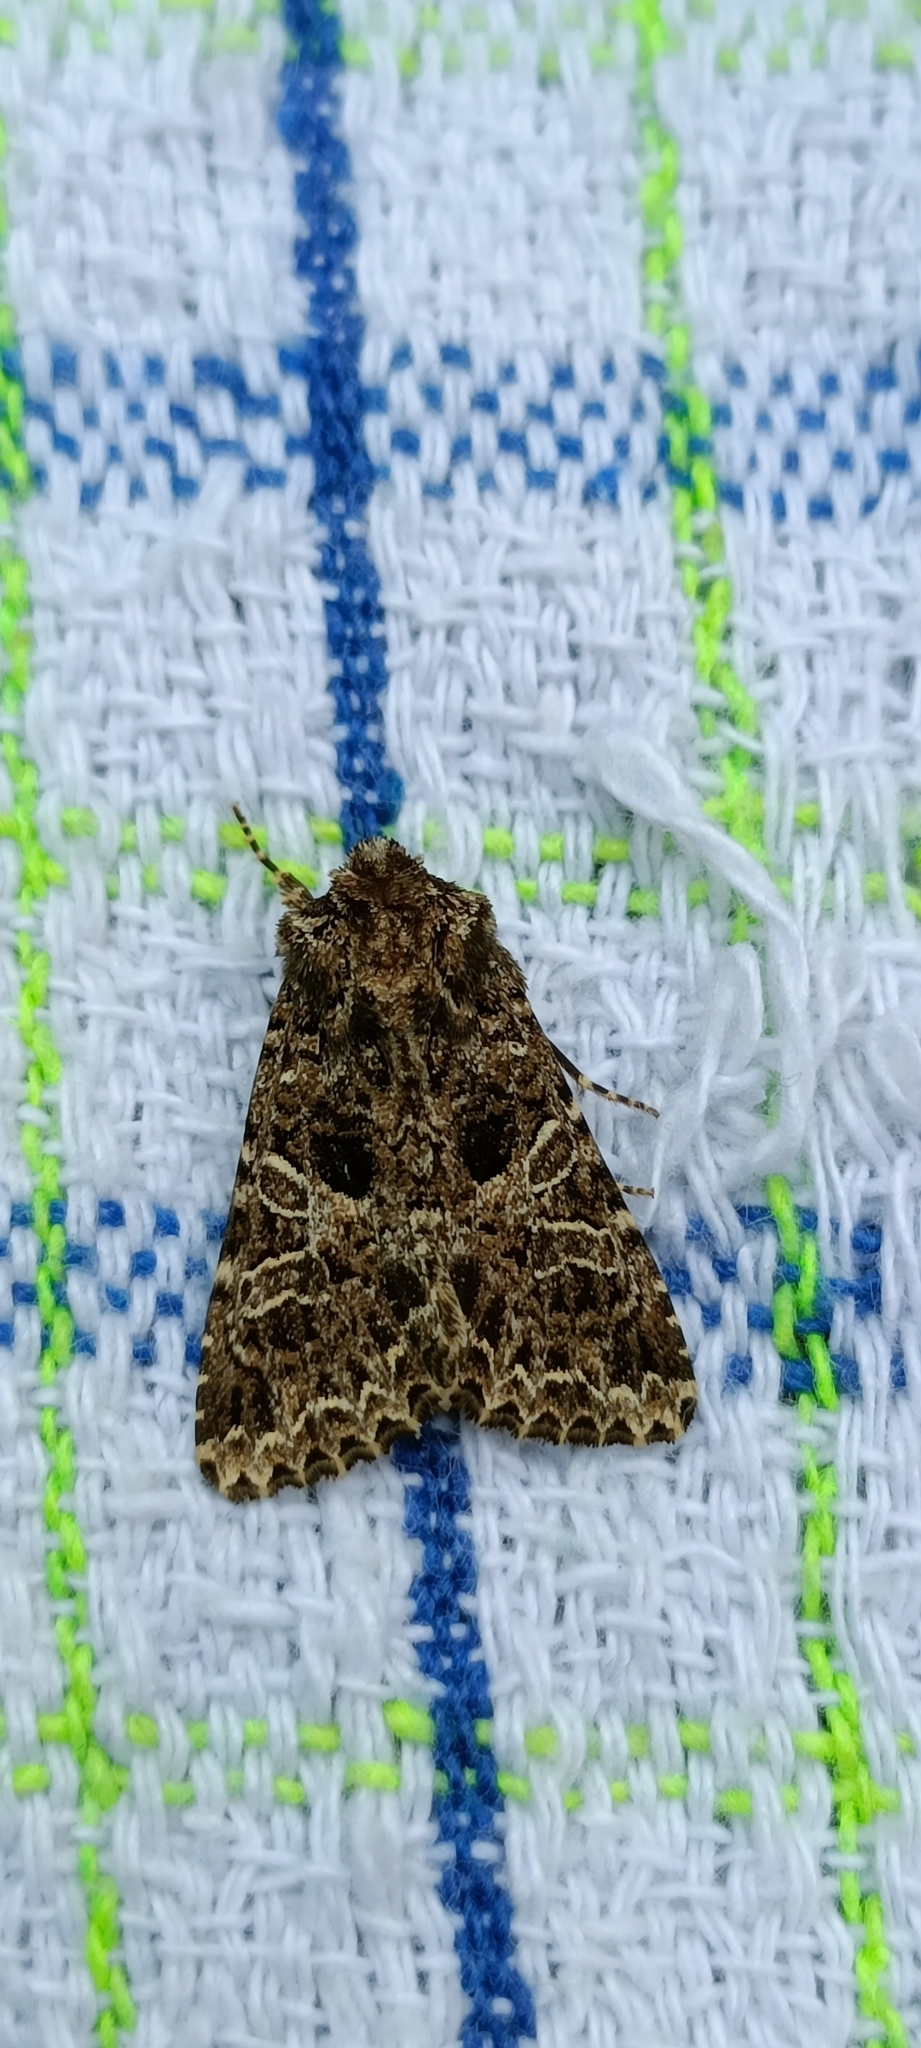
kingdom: Animalia
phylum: Arthropoda
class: Insecta
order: Lepidoptera
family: Noctuidae
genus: Hadena
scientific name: Hadena bicruris
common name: Lychnis
